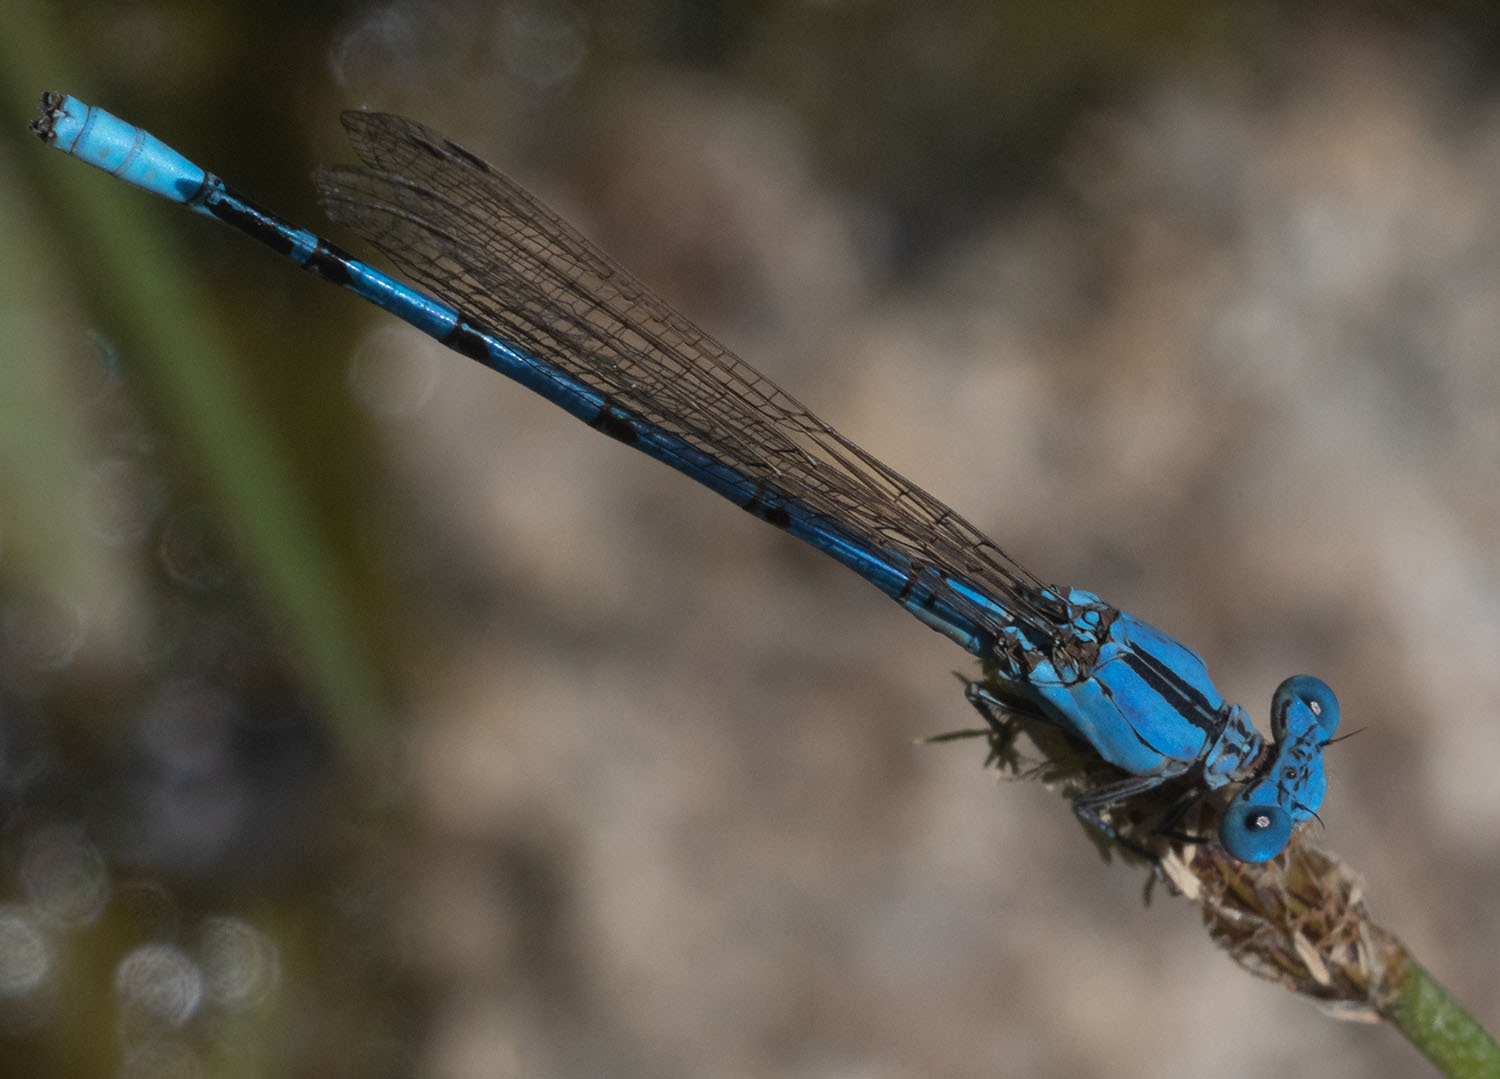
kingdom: Animalia
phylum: Arthropoda
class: Insecta
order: Odonata
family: Coenagrionidae
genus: Argia
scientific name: Argia nahuana
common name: Aztec dancer
